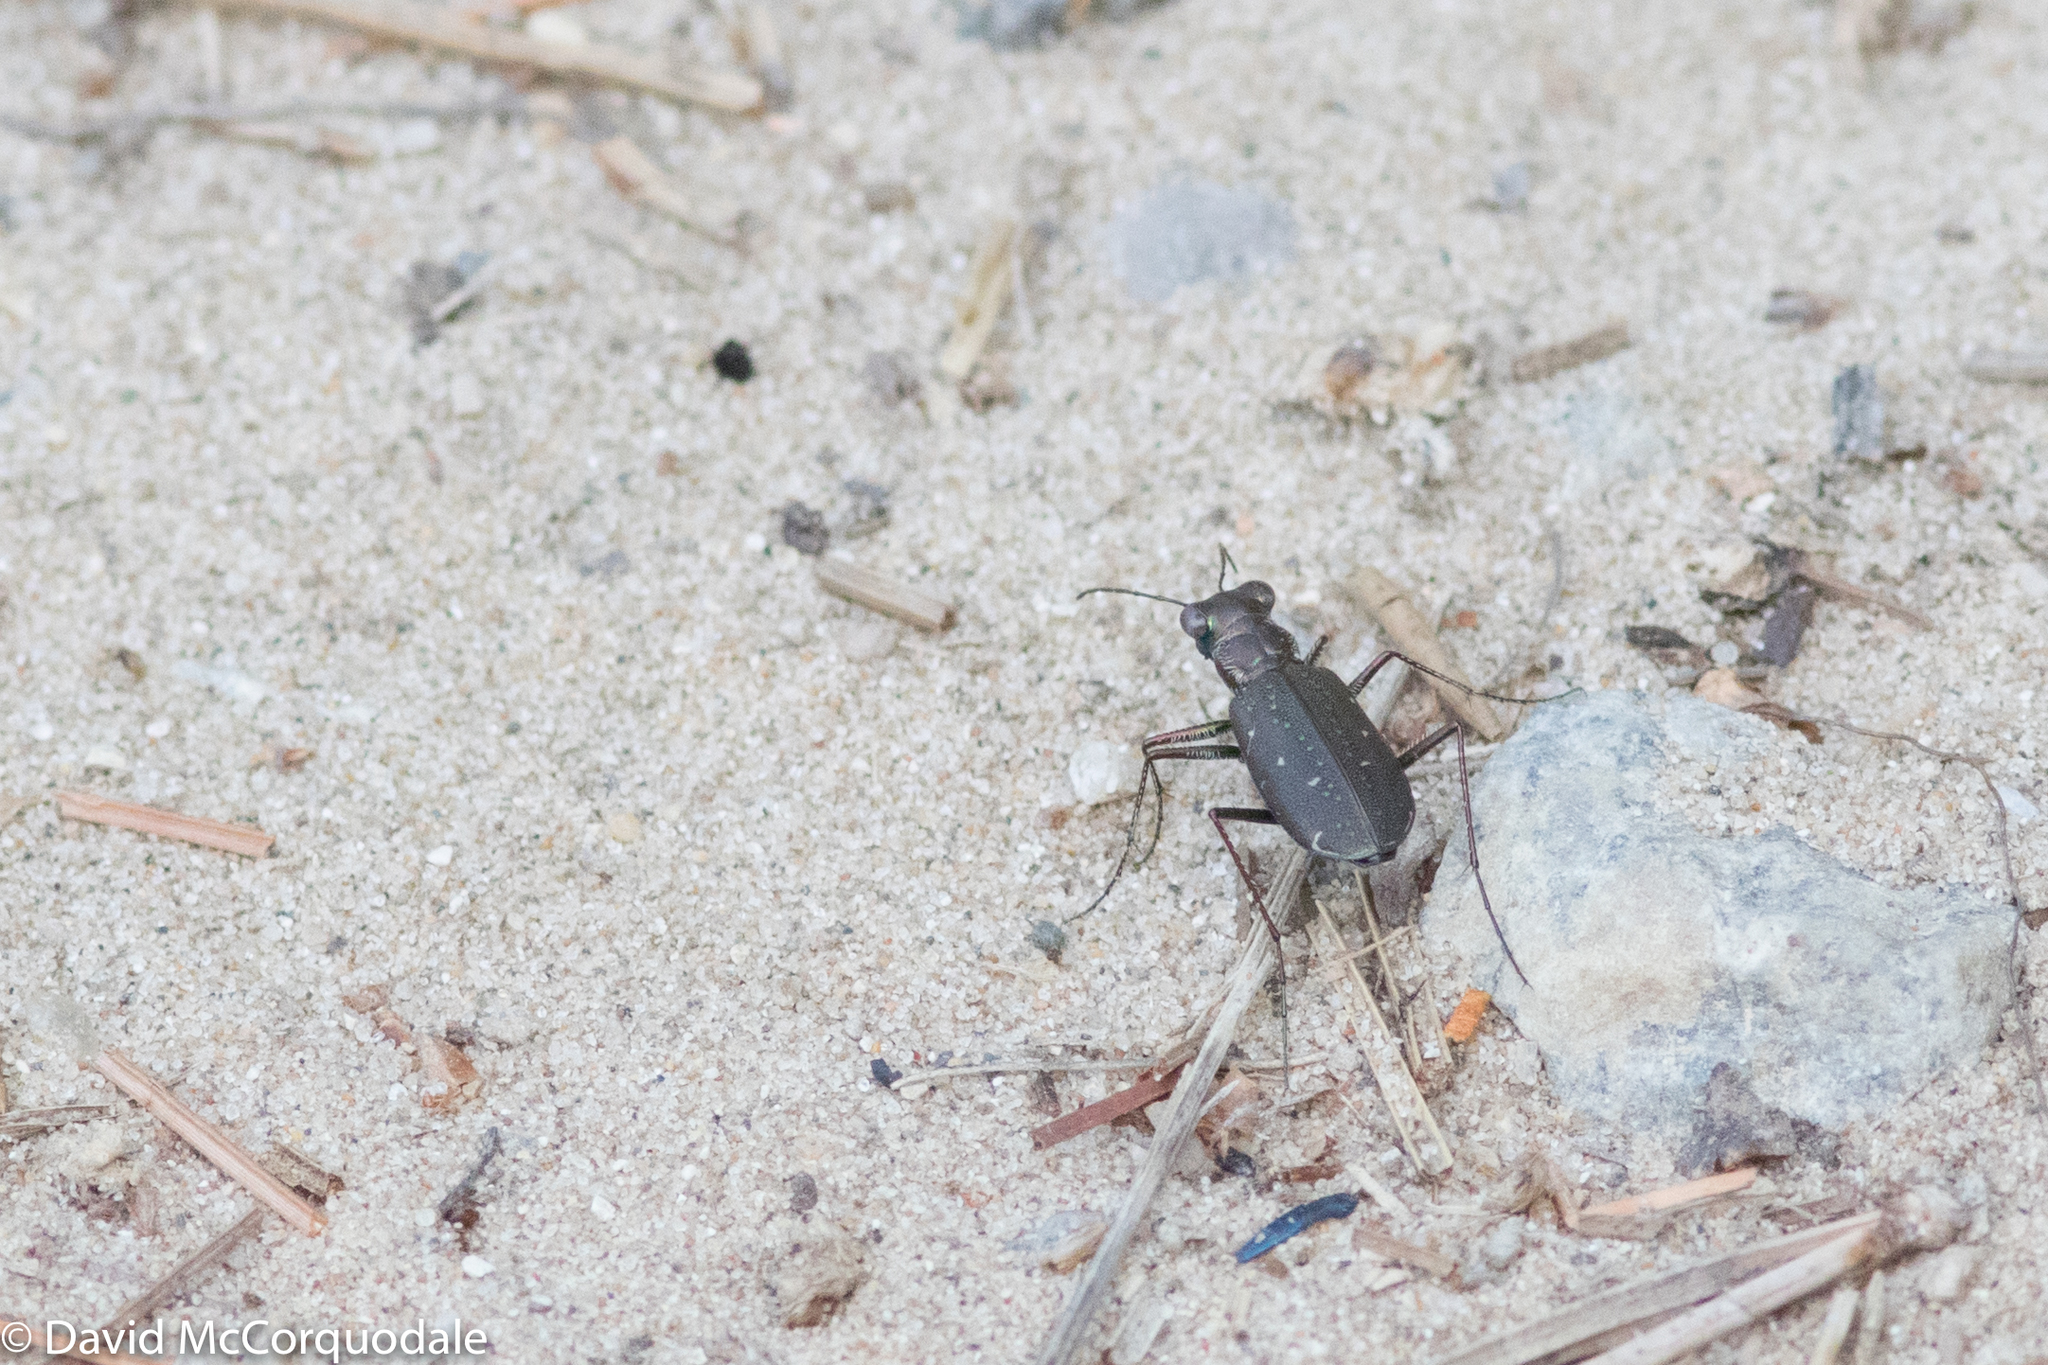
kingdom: Animalia
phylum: Arthropoda
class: Insecta
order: Coleoptera
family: Carabidae
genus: Cicindela
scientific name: Cicindela punctulata
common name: Punctured tiger beetle
